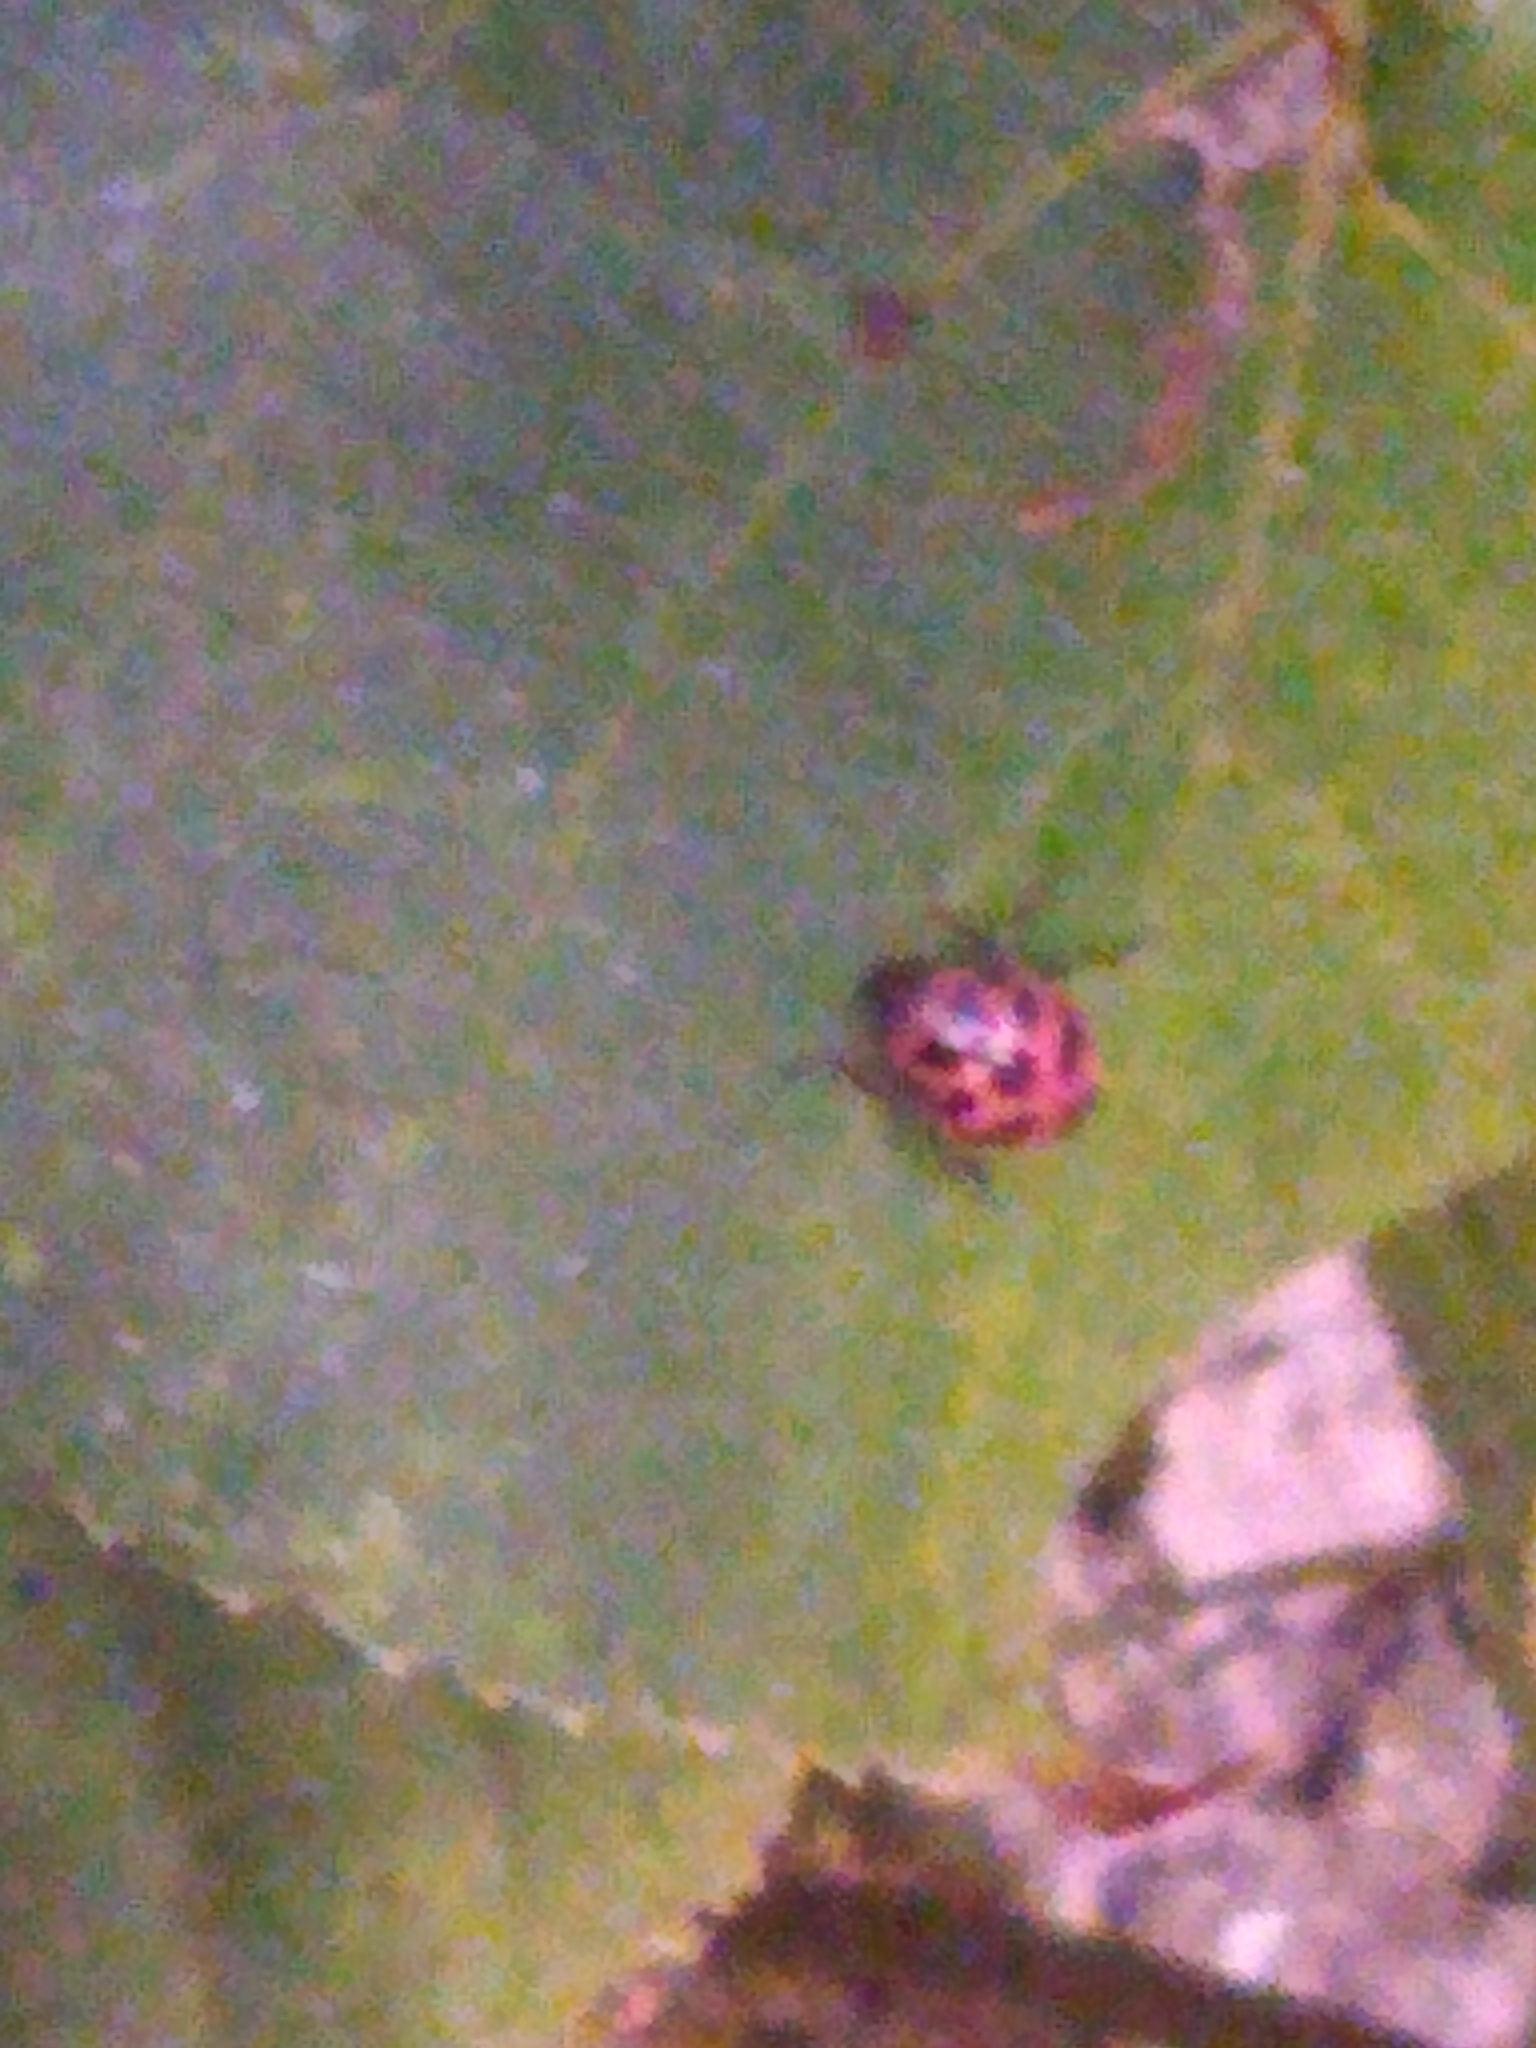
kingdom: Animalia
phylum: Arthropoda
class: Insecta
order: Coleoptera
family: Coccinellidae
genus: Coleomegilla
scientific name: Coleomegilla maculata
